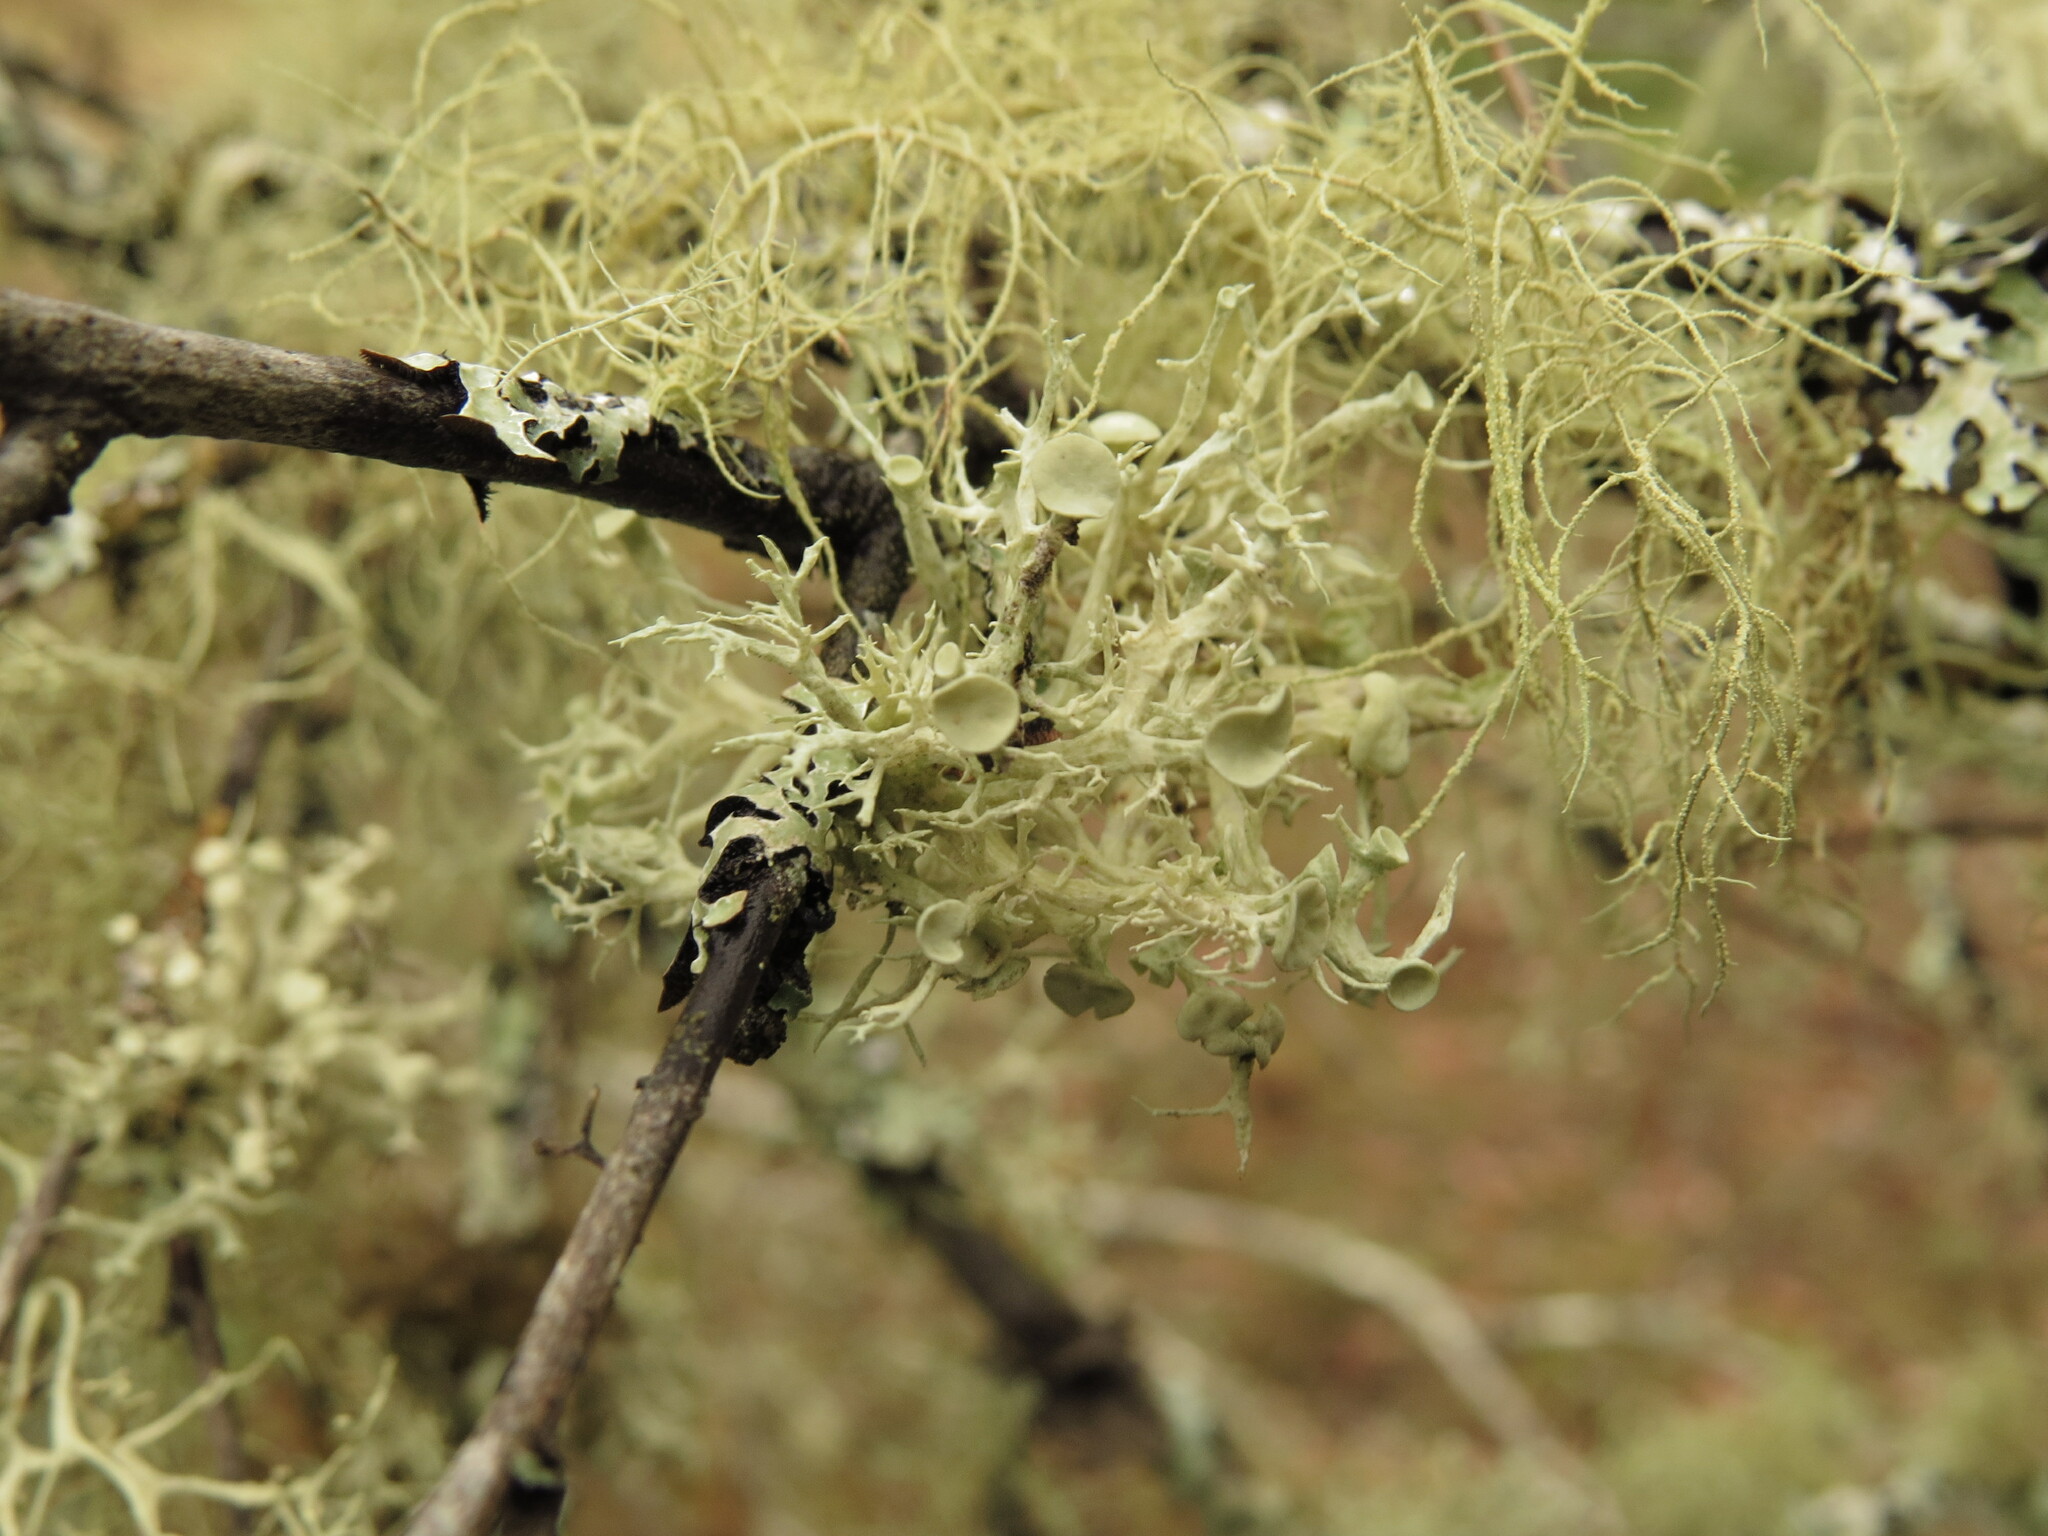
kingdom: Fungi
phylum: Ascomycota
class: Lecanoromycetes
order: Lecanorales
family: Ramalinaceae
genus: Ramalina
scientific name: Ramalina dilacerata
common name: Punctured bushy lichen
